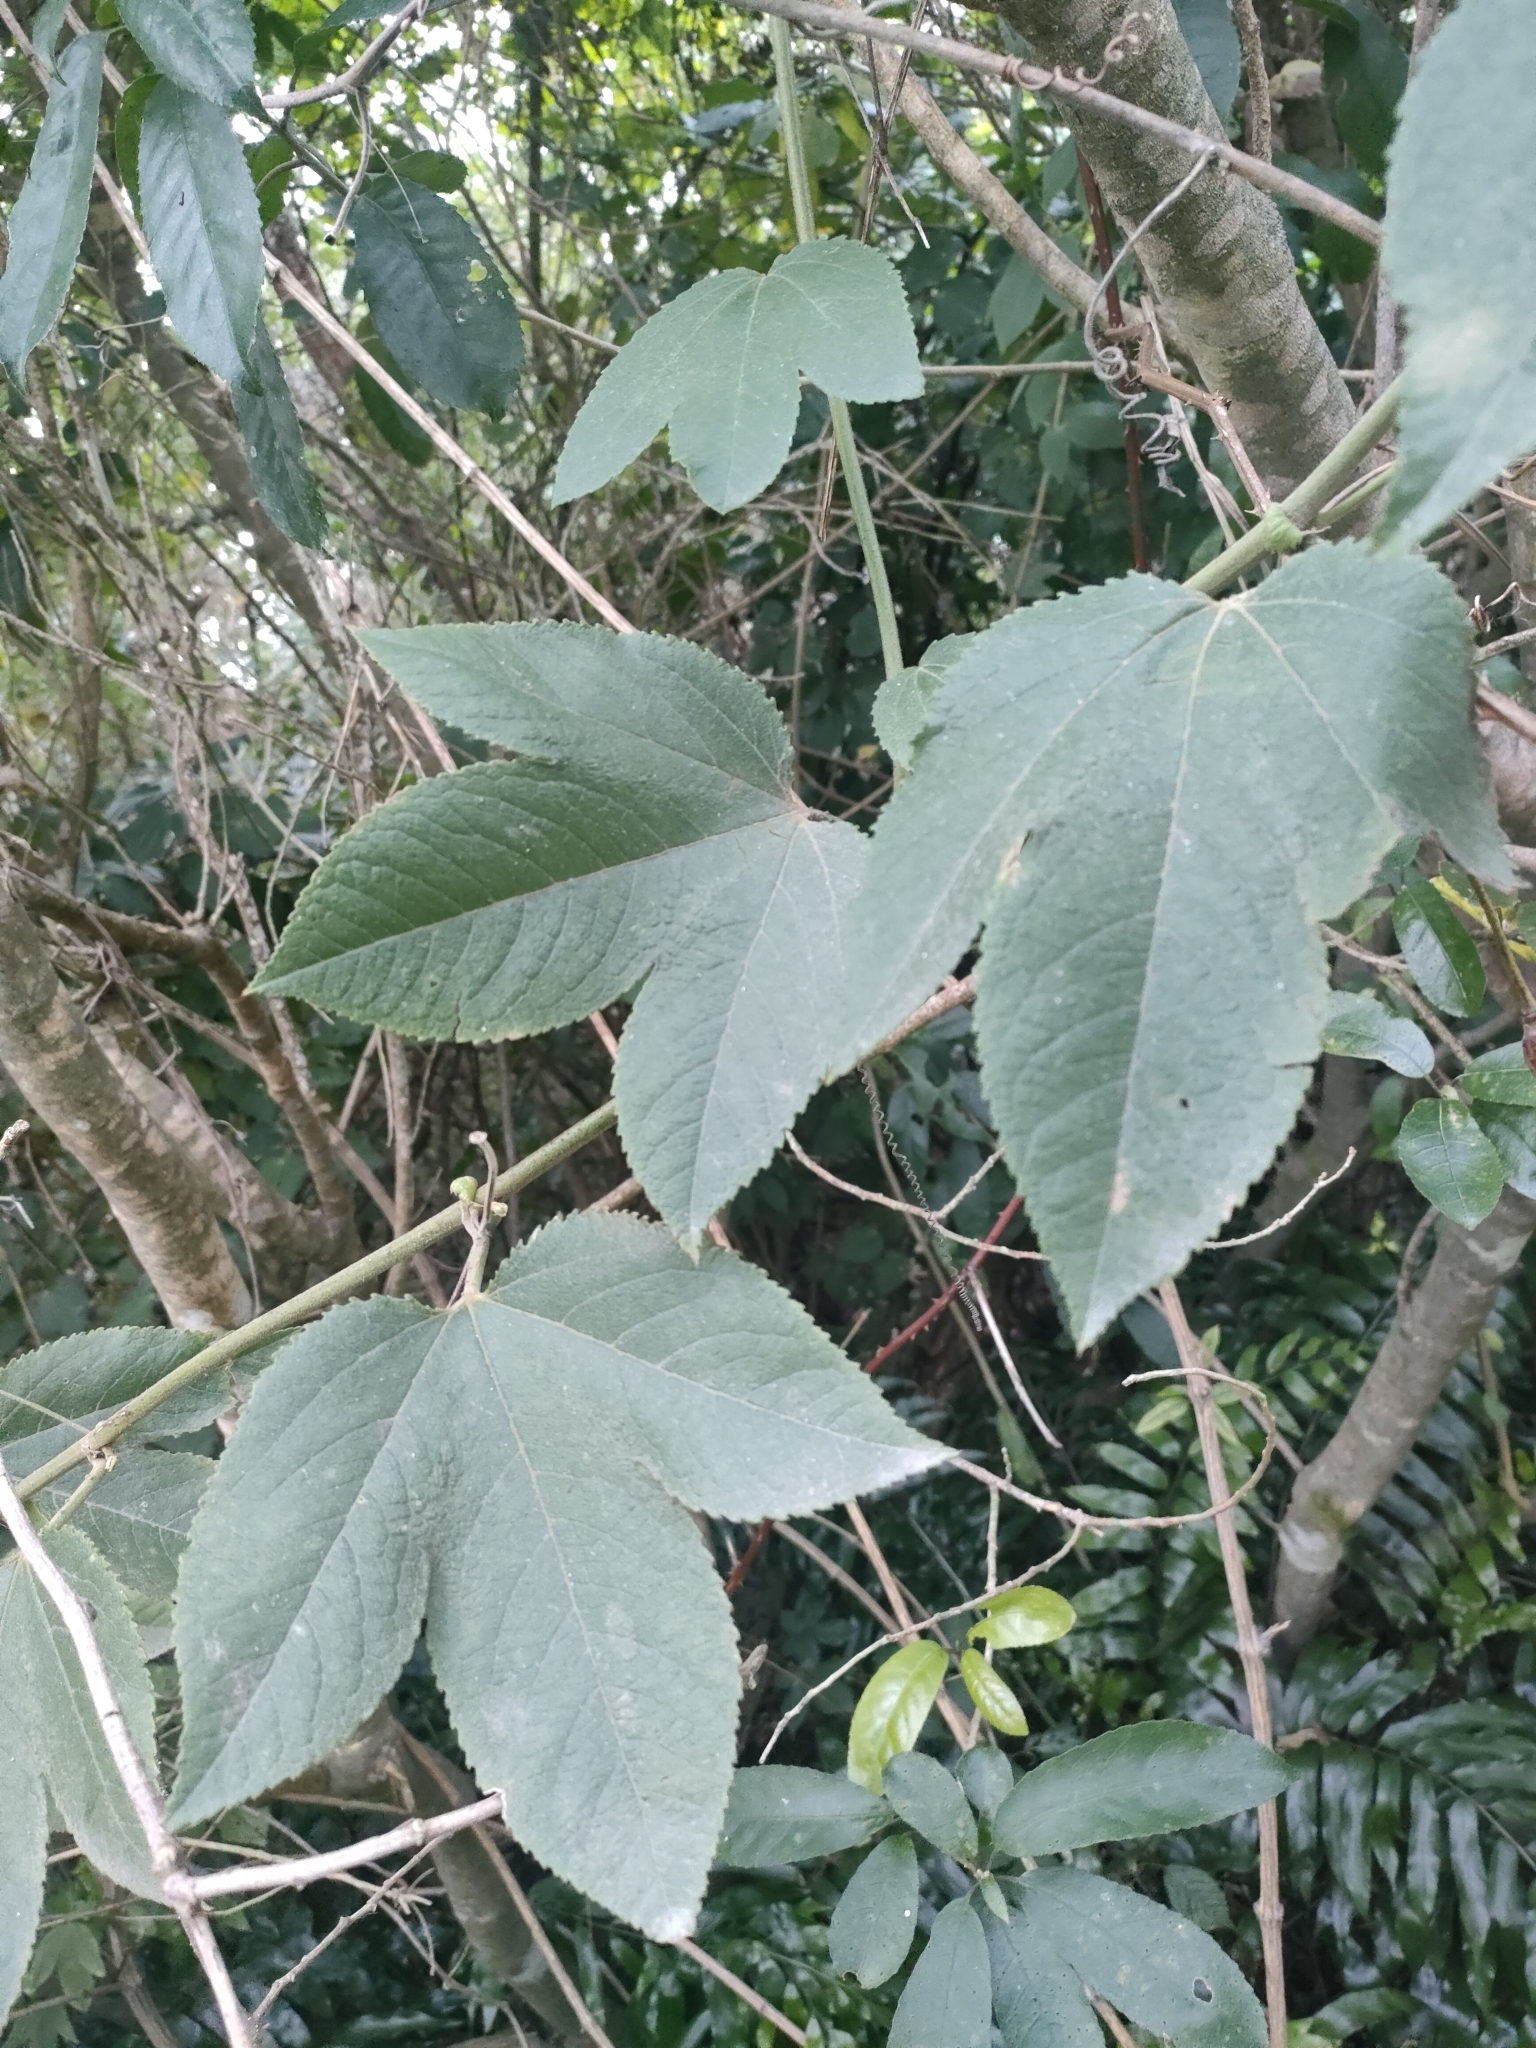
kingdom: Plantae
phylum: Tracheophyta
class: Magnoliopsida
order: Malpighiales
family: Passifloraceae
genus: Passiflora
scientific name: Passiflora tripartita
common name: Banana poka
